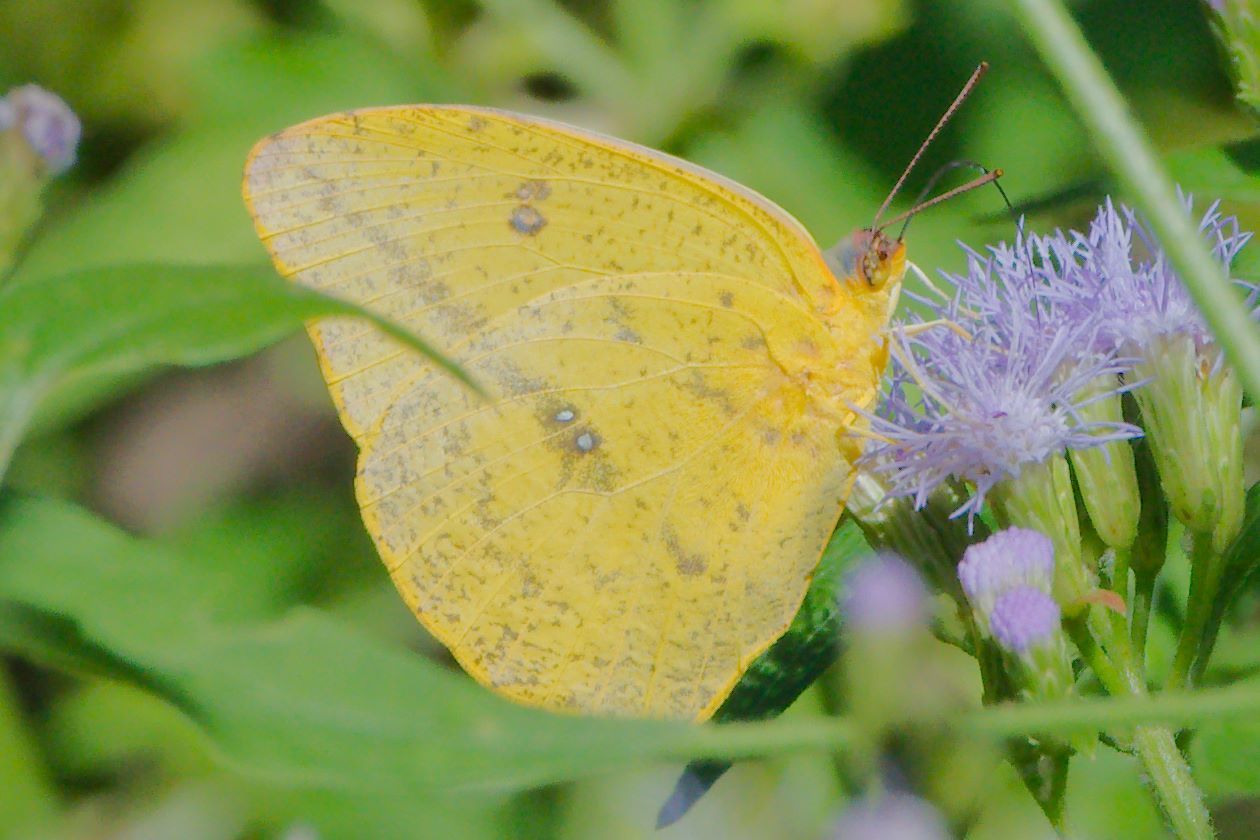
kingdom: Animalia
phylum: Arthropoda
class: Insecta
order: Lepidoptera
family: Pieridae
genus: Phoebis
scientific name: Phoebis agarithe
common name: Large orange sulphur
